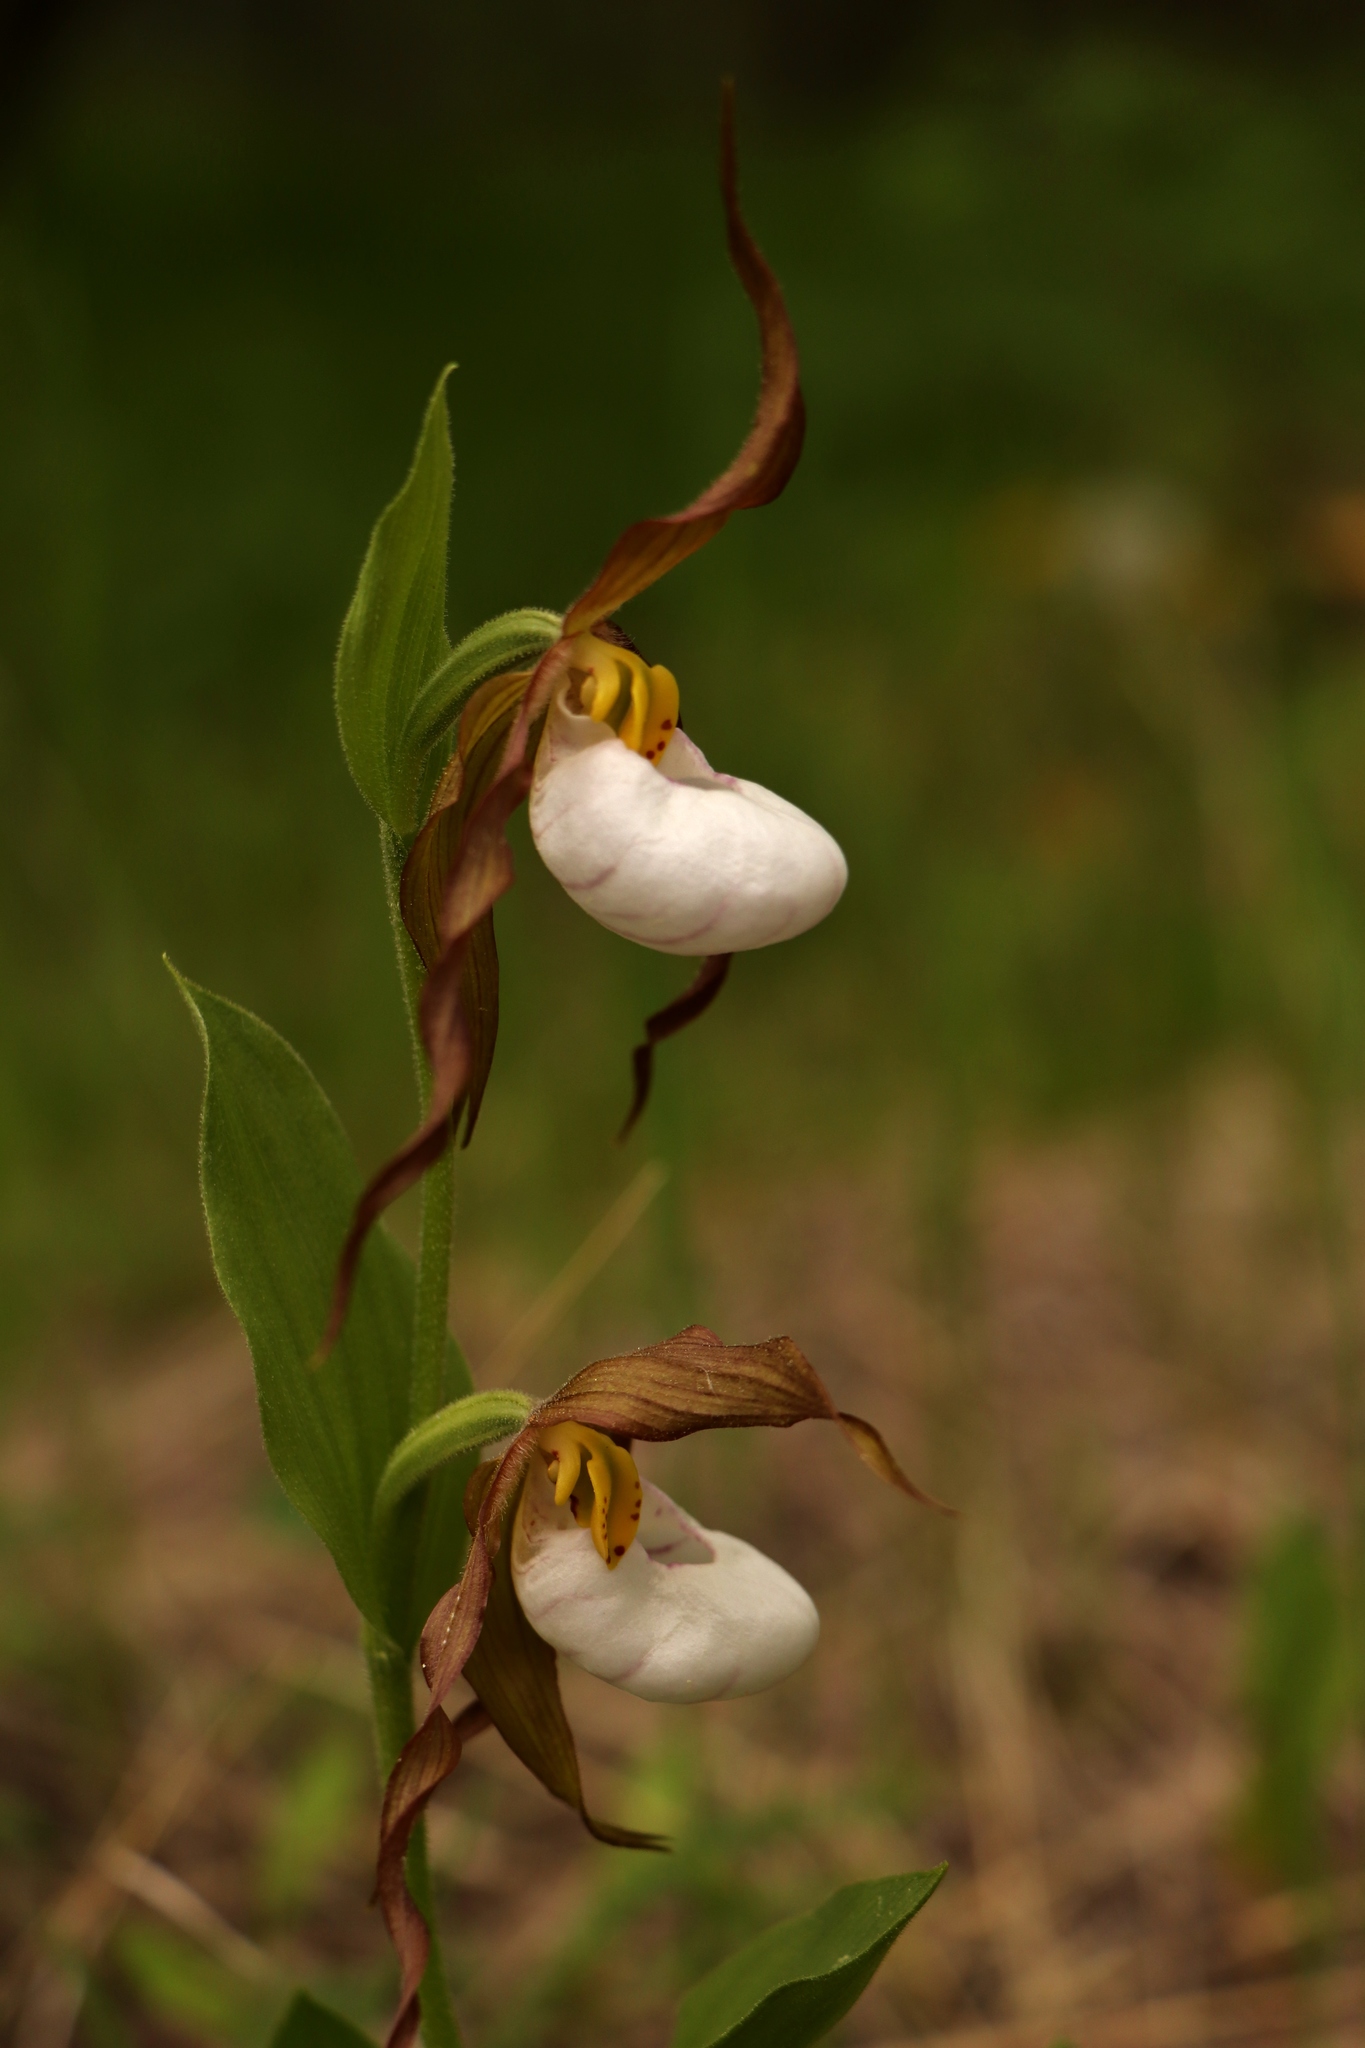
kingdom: Plantae
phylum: Tracheophyta
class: Liliopsida
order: Asparagales
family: Orchidaceae
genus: Cypripedium
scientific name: Cypripedium montanum
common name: Mountain lady's-slipper
